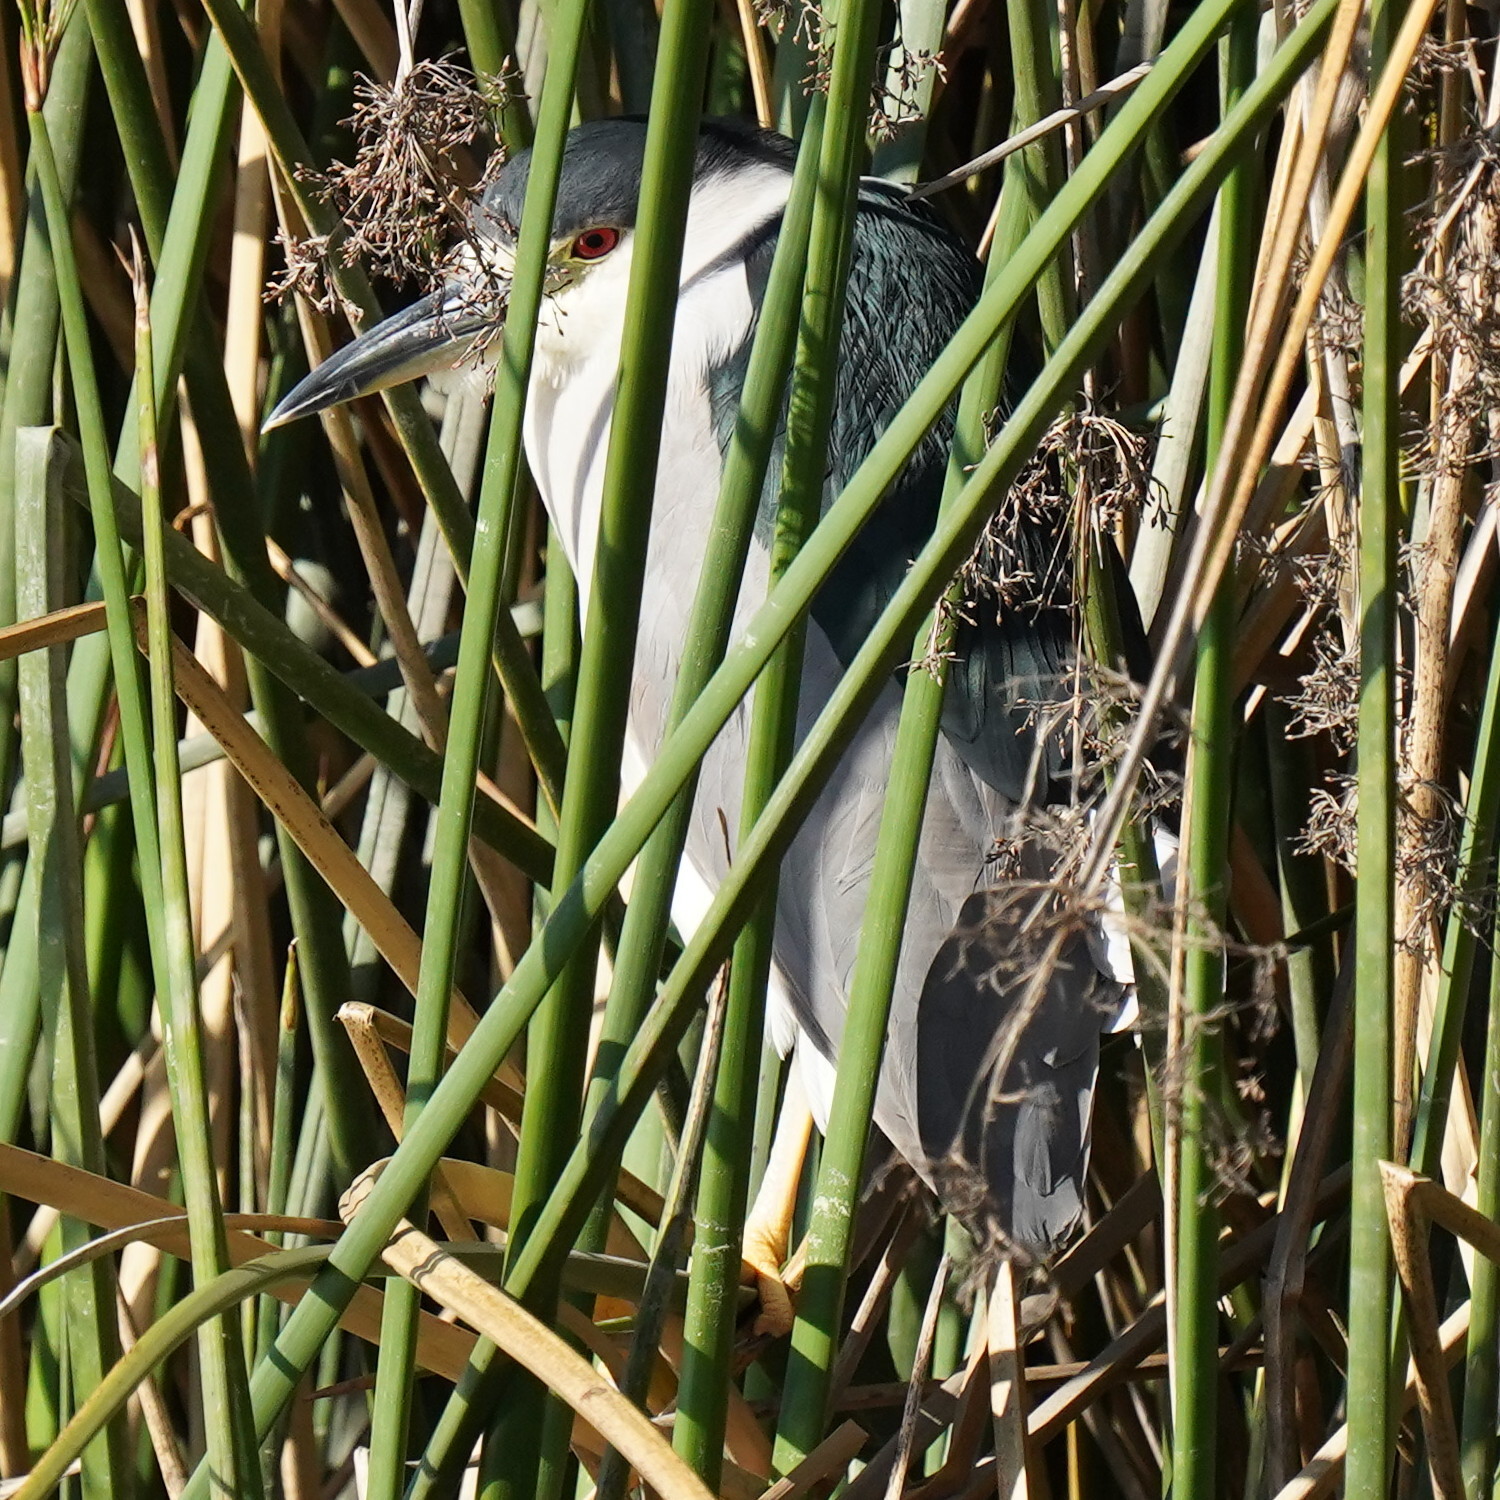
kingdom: Animalia
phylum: Chordata
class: Aves
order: Pelecaniformes
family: Ardeidae
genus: Nycticorax
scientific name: Nycticorax nycticorax
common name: Black-crowned night heron
